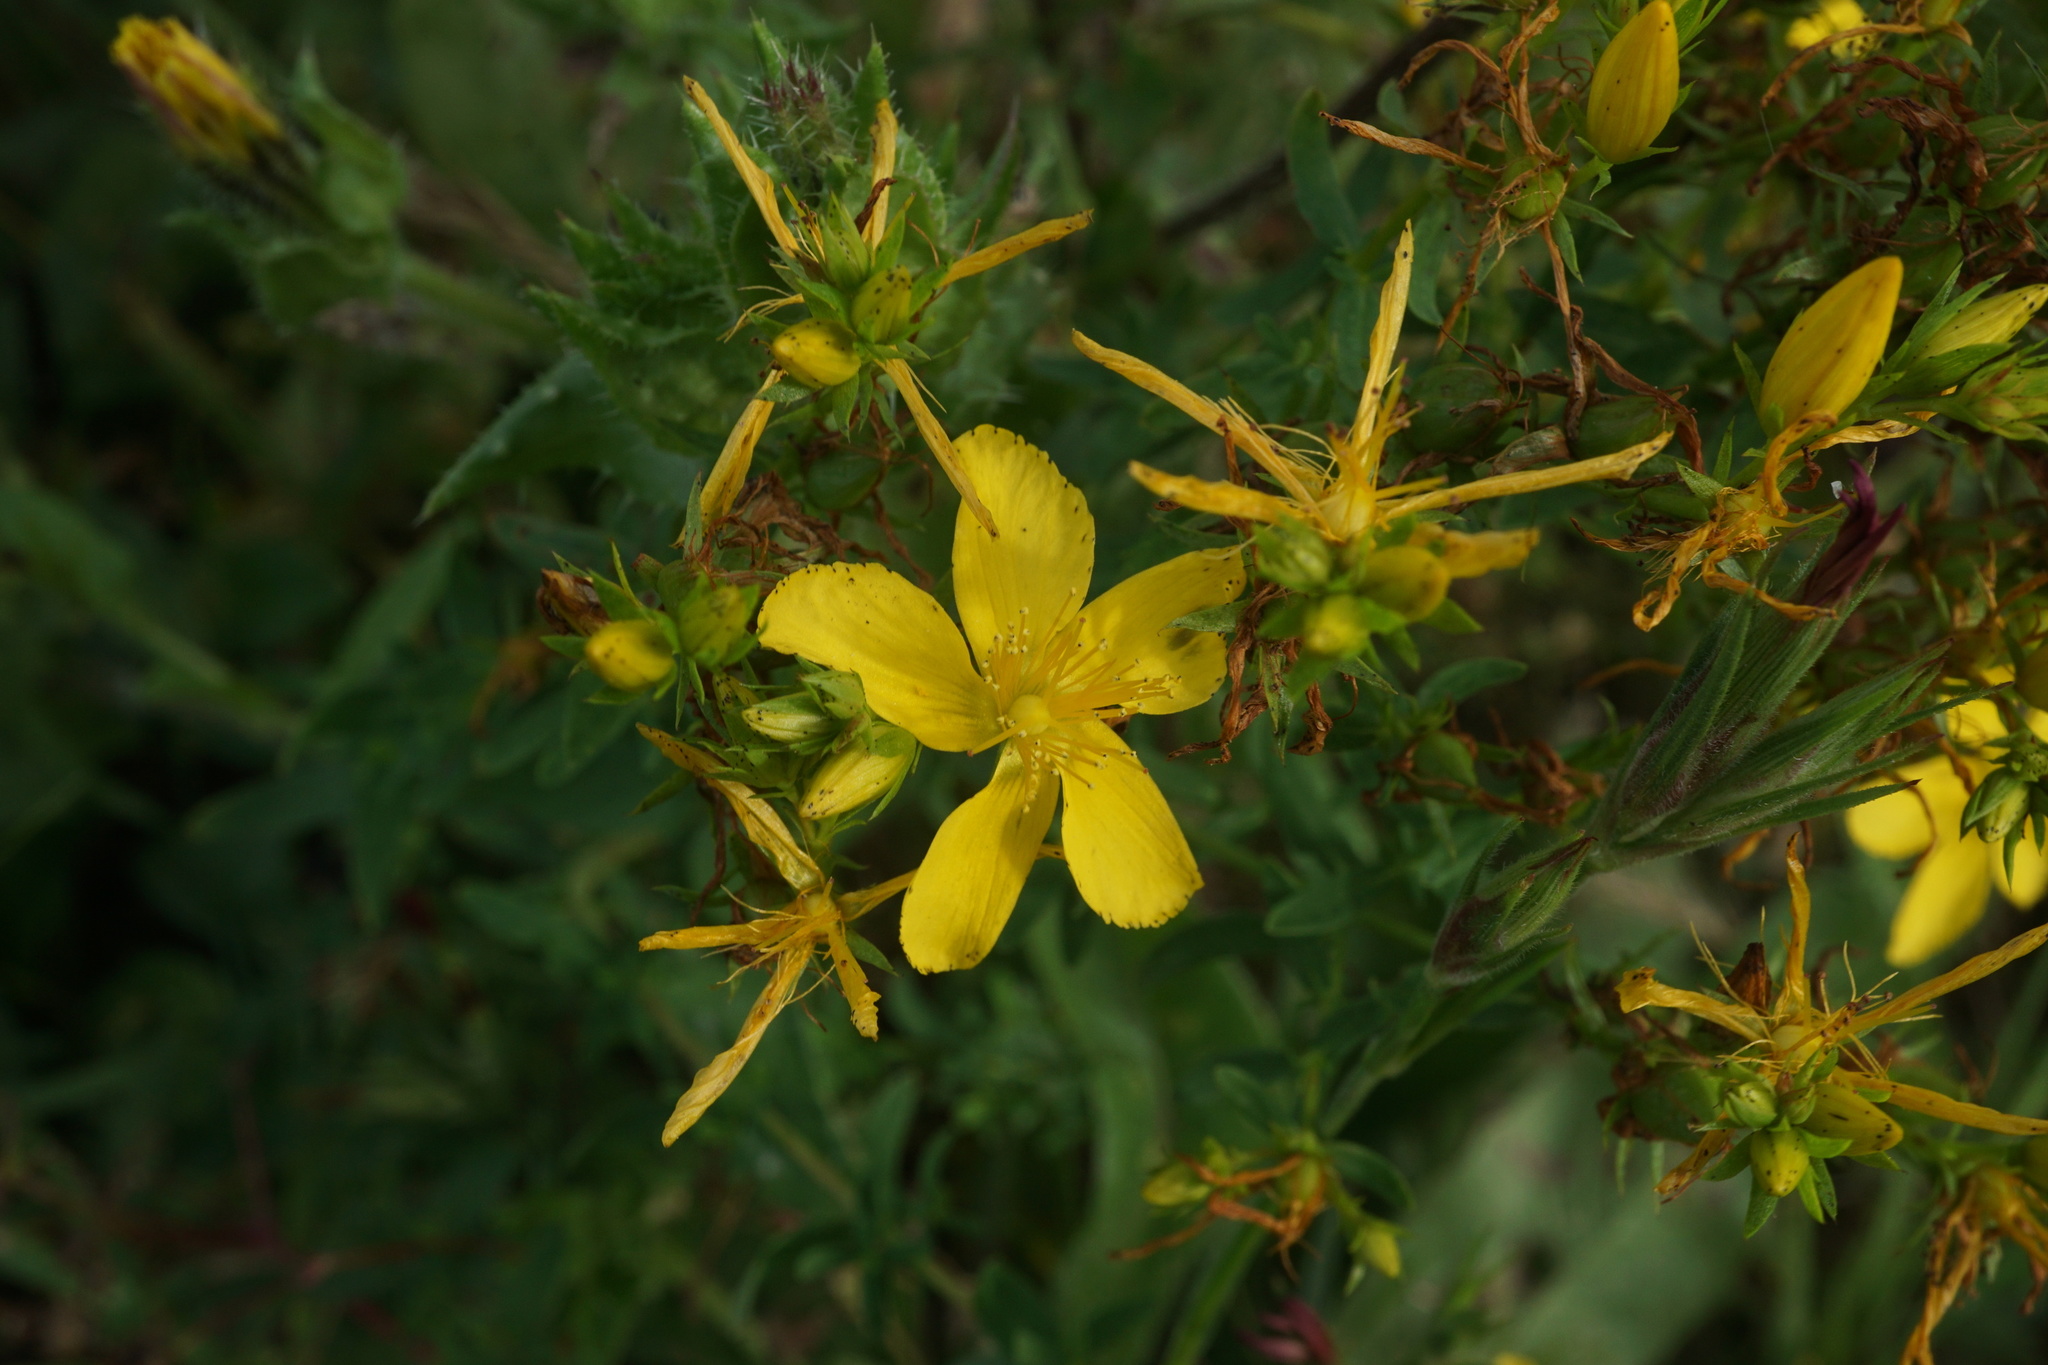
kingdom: Plantae
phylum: Tracheophyta
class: Magnoliopsida
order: Malpighiales
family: Hypericaceae
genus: Hypericum
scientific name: Hypericum perforatum
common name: Common st. johnswort
